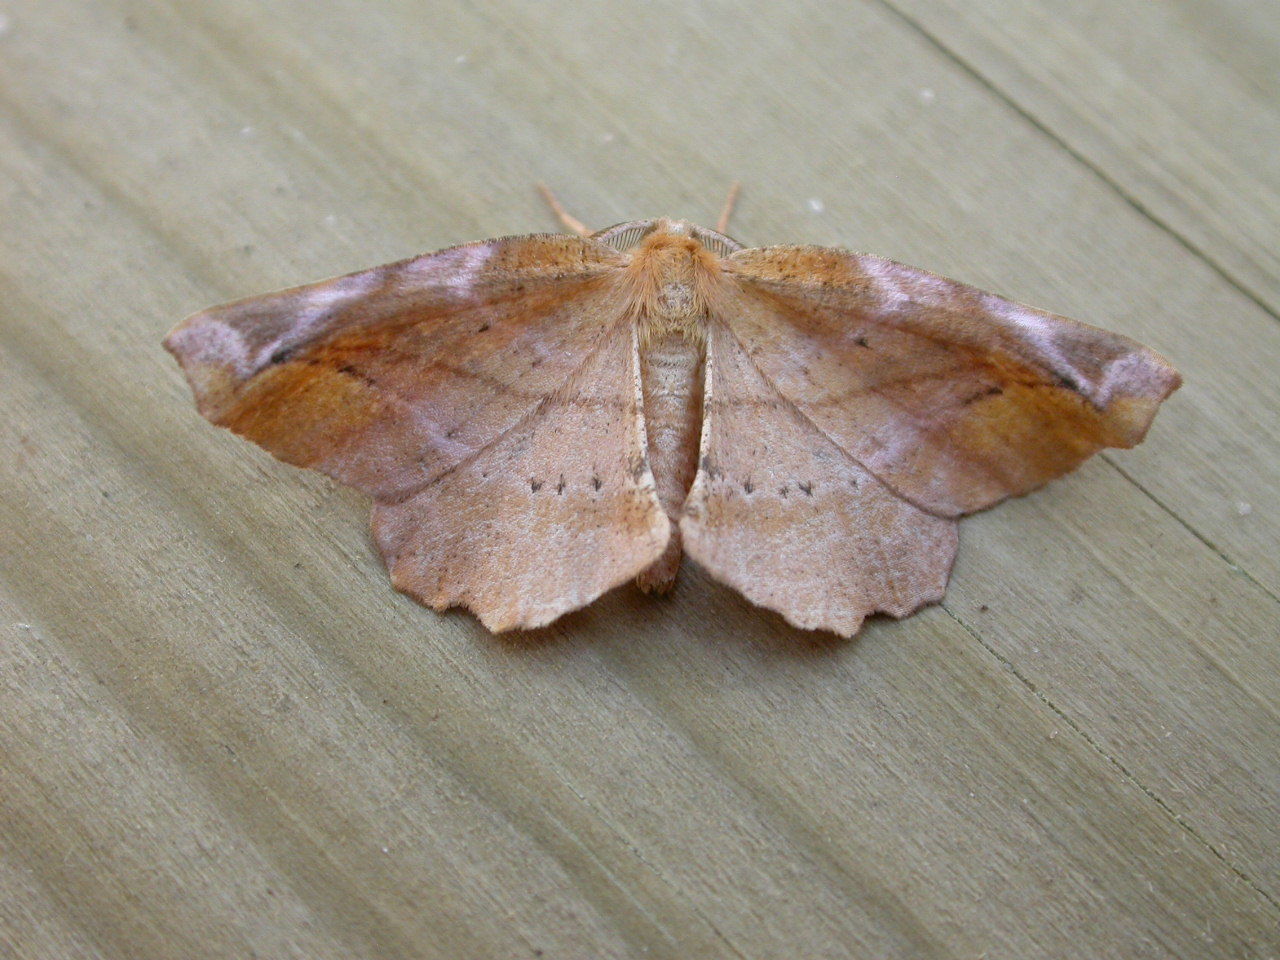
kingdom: Animalia
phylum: Arthropoda
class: Insecta
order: Lepidoptera
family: Geometridae
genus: Apeira
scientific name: Apeira syringaria
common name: Lilac beauty
